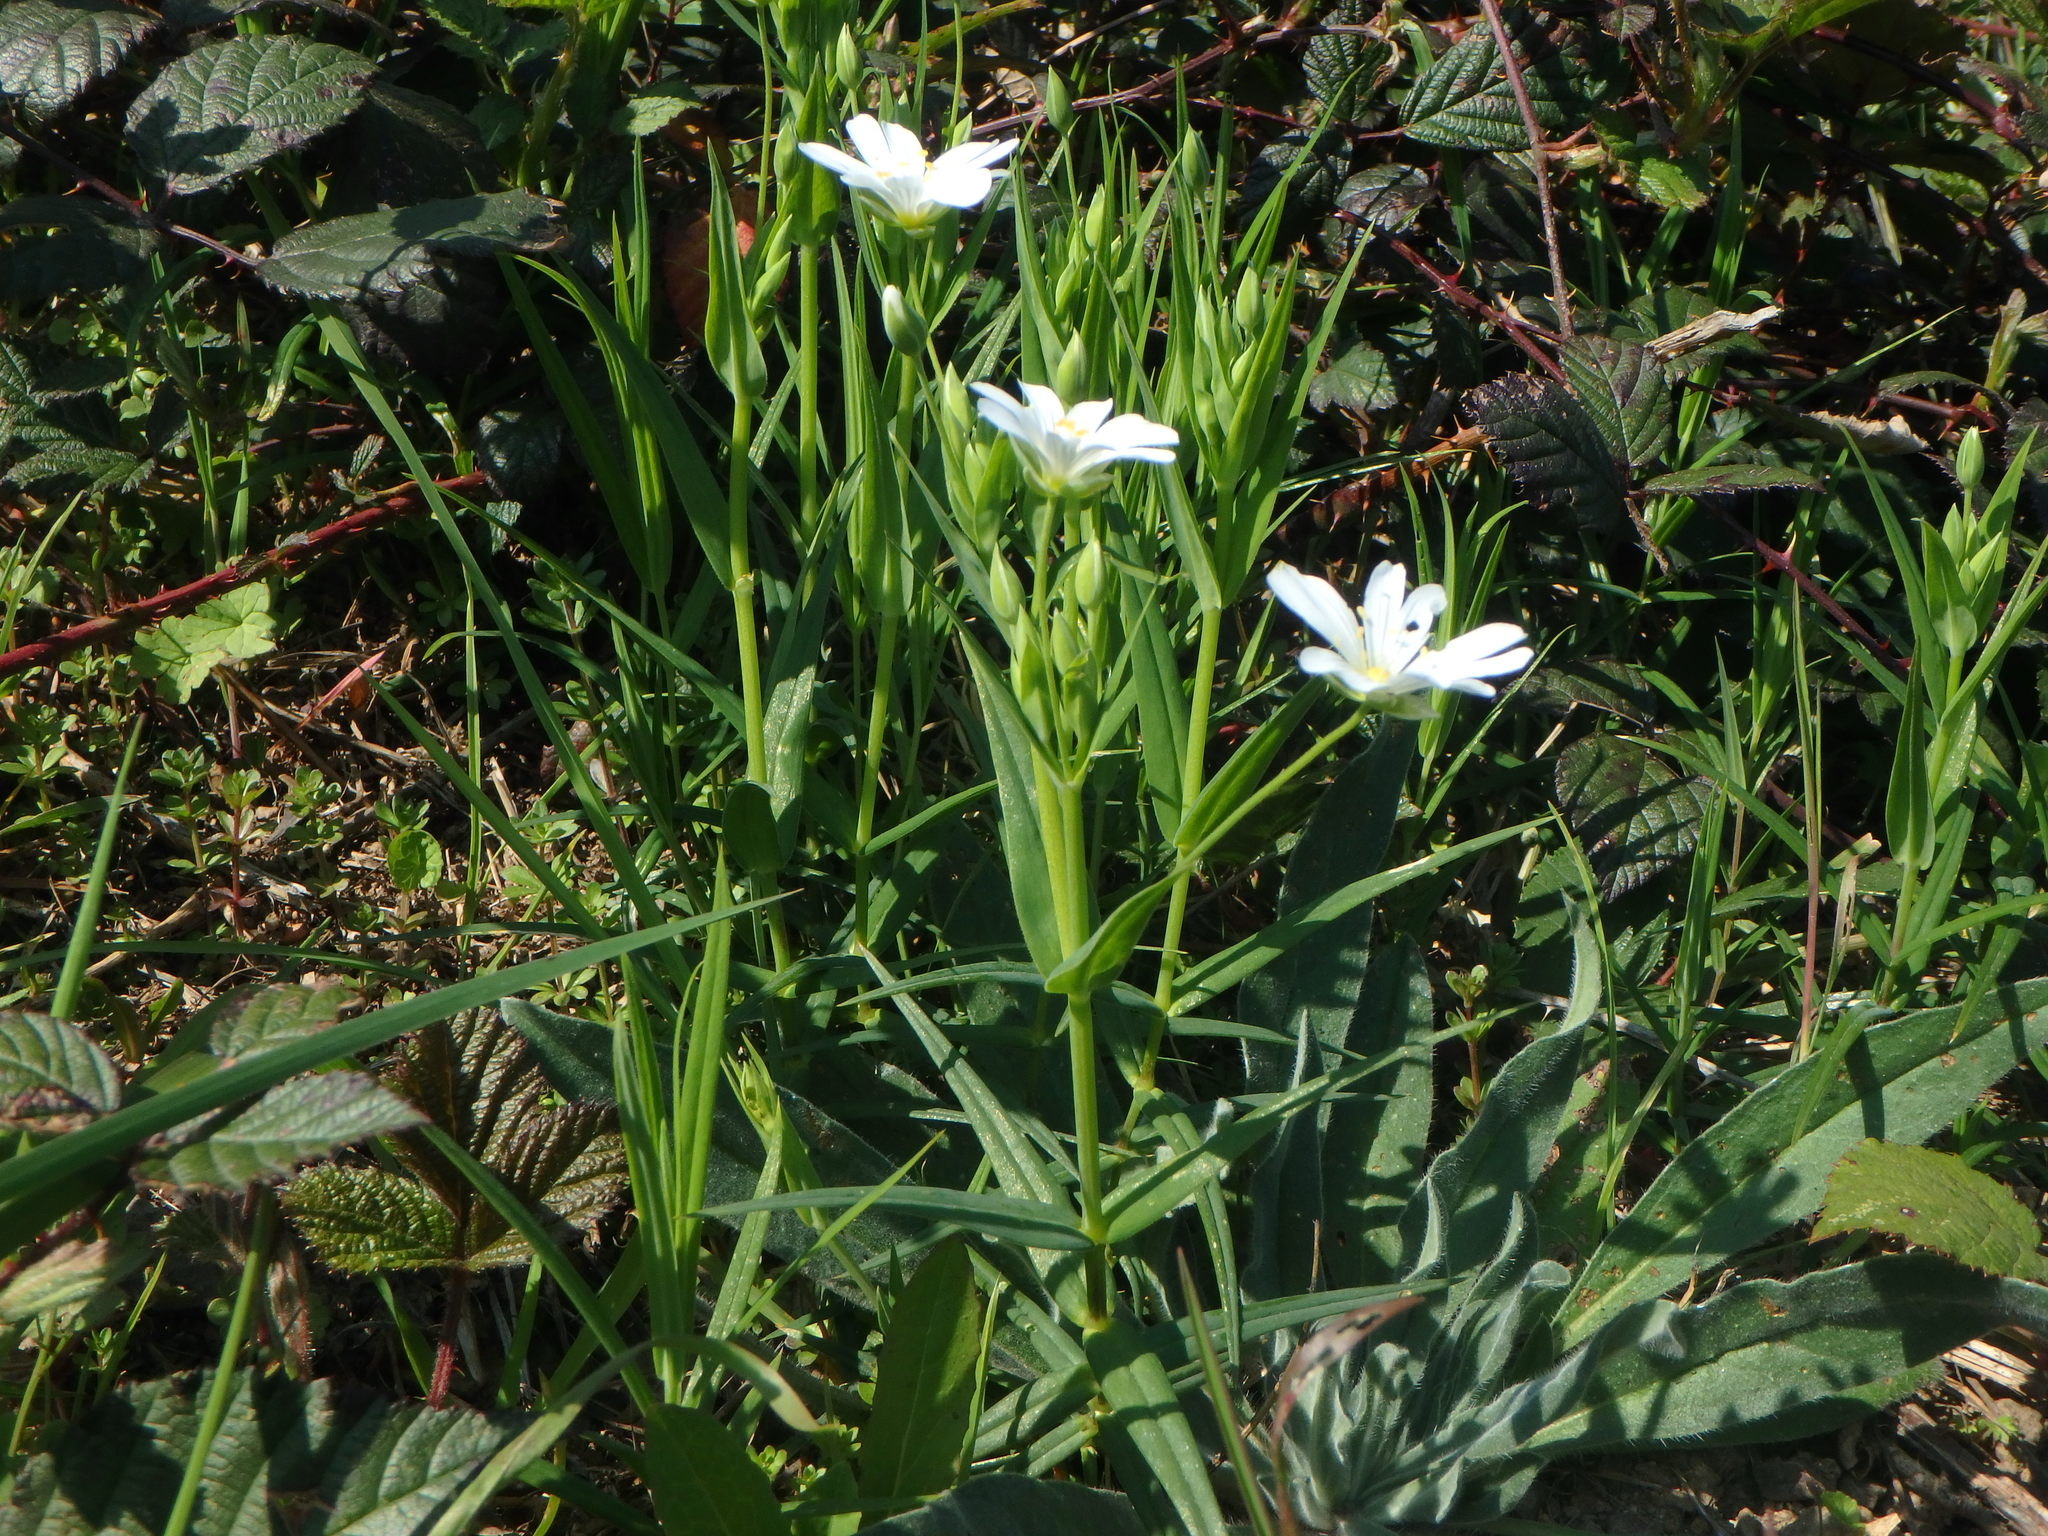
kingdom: Plantae
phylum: Tracheophyta
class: Magnoliopsida
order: Caryophyllales
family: Caryophyllaceae
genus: Rabelera
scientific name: Rabelera holostea
